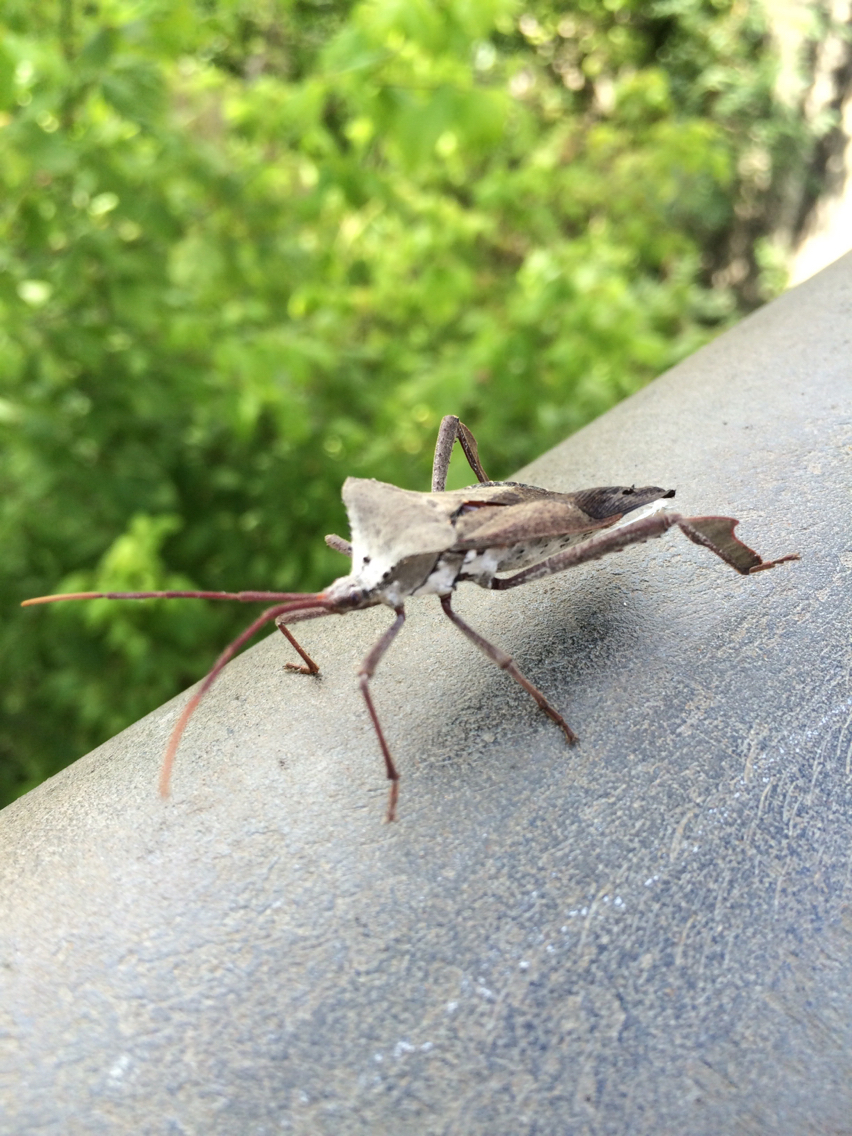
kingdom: Animalia
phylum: Arthropoda
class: Insecta
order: Hemiptera
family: Coreidae
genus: Acanthocephala
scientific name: Acanthocephala declivis
